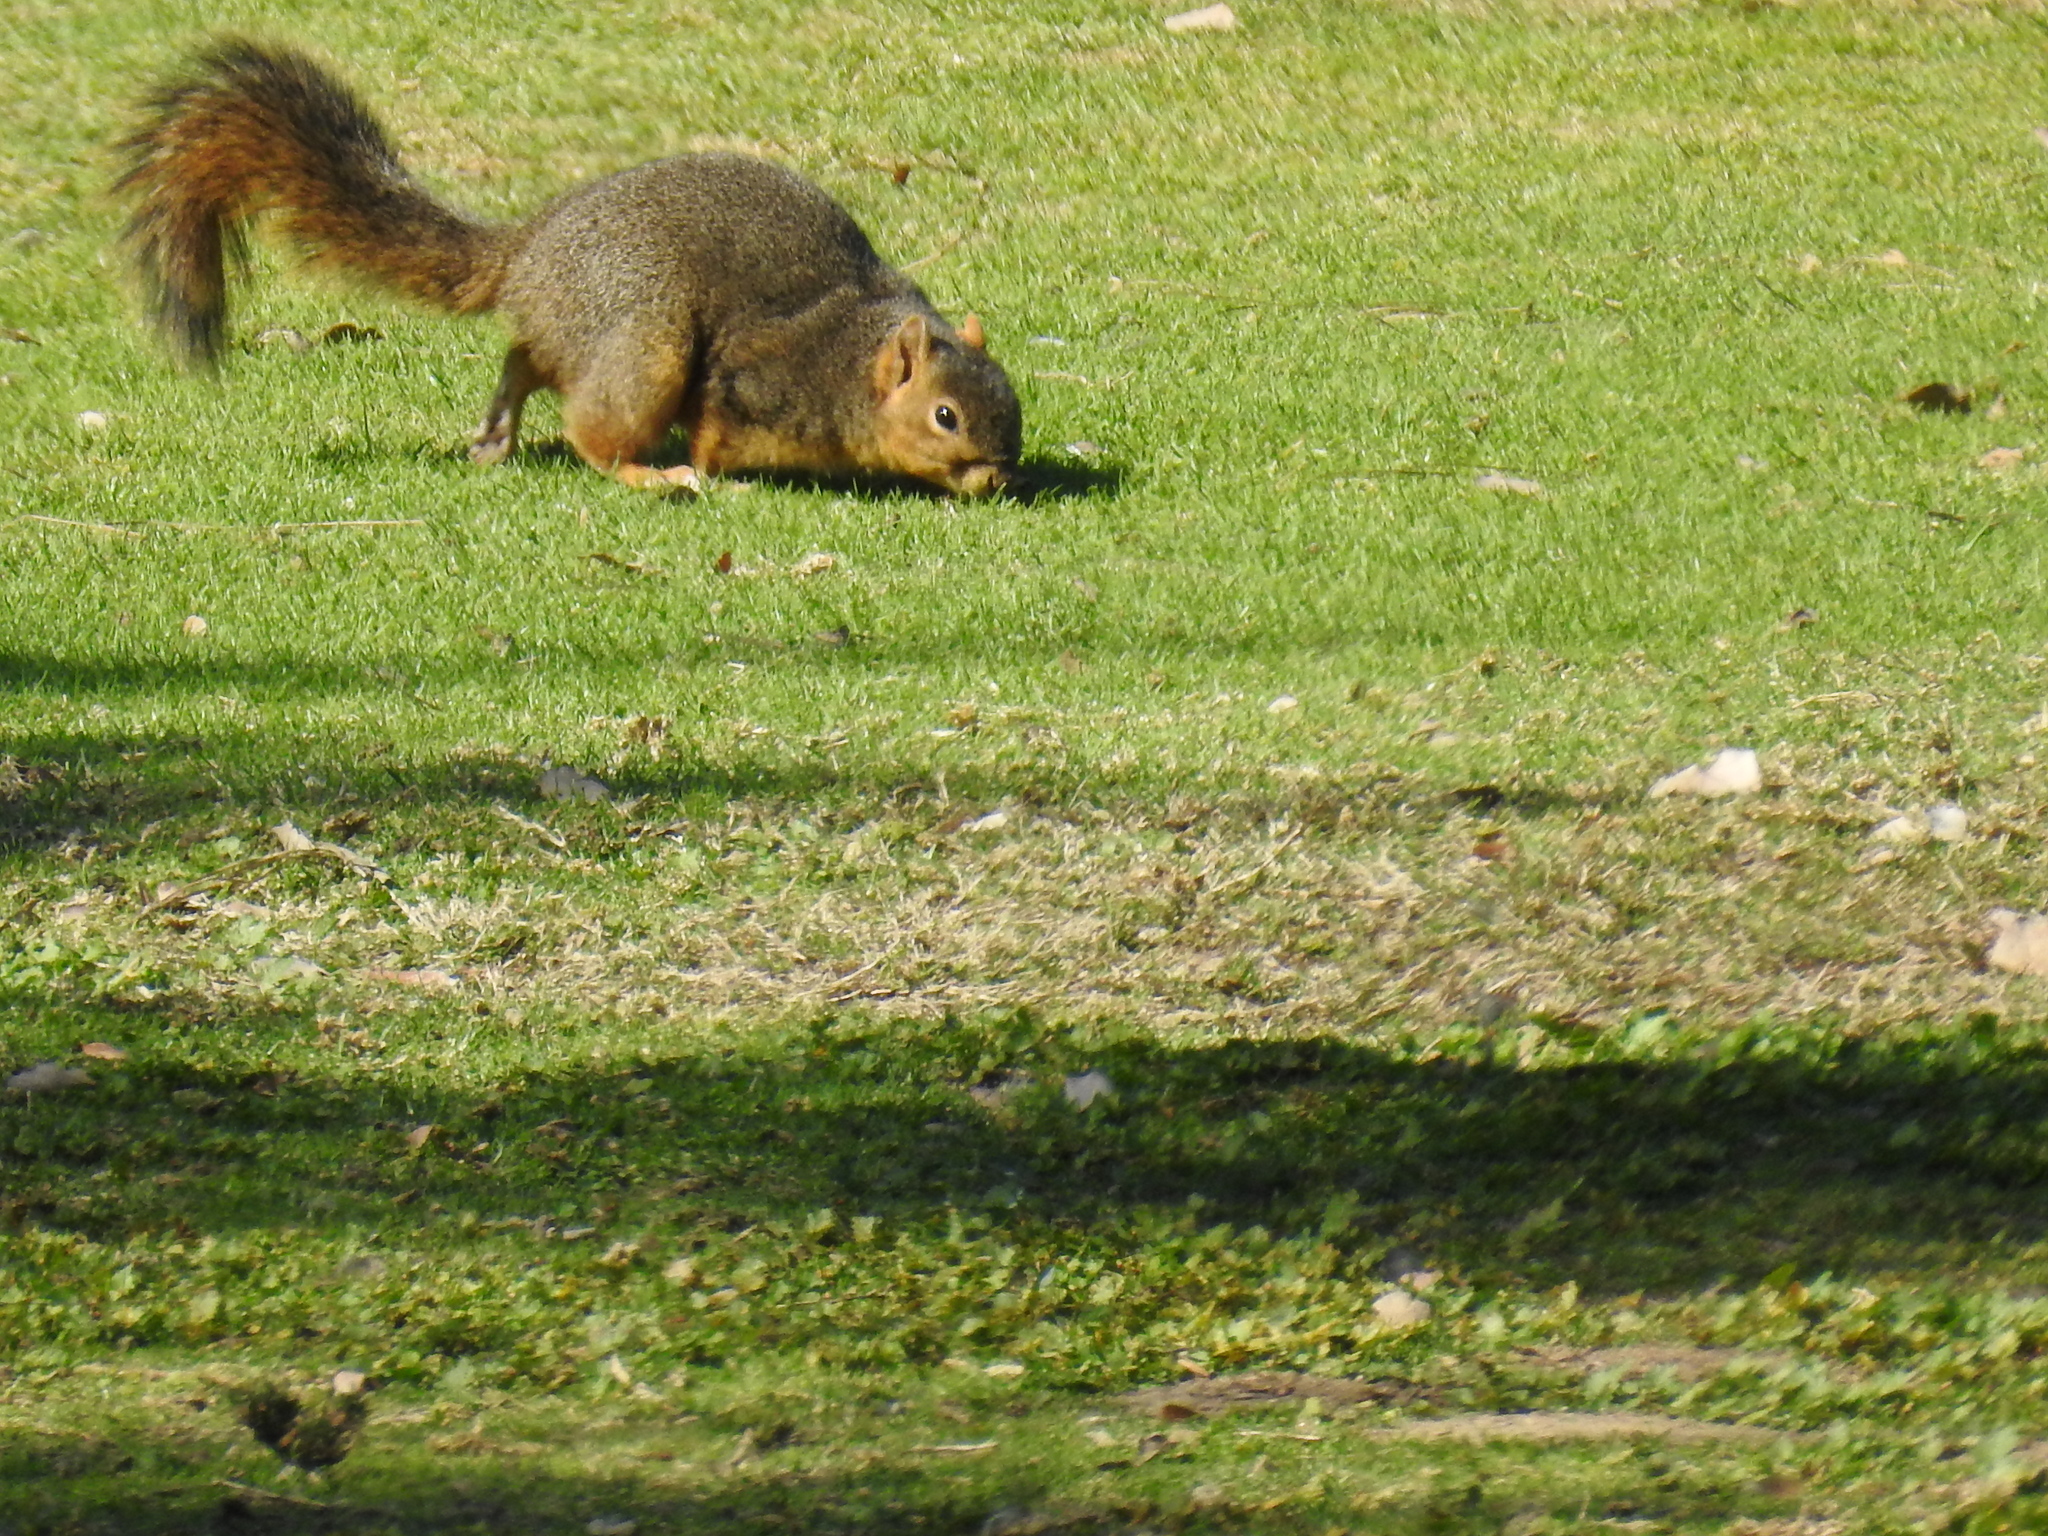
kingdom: Animalia
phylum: Chordata
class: Mammalia
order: Rodentia
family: Sciuridae
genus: Sciurus
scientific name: Sciurus niger
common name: Fox squirrel
